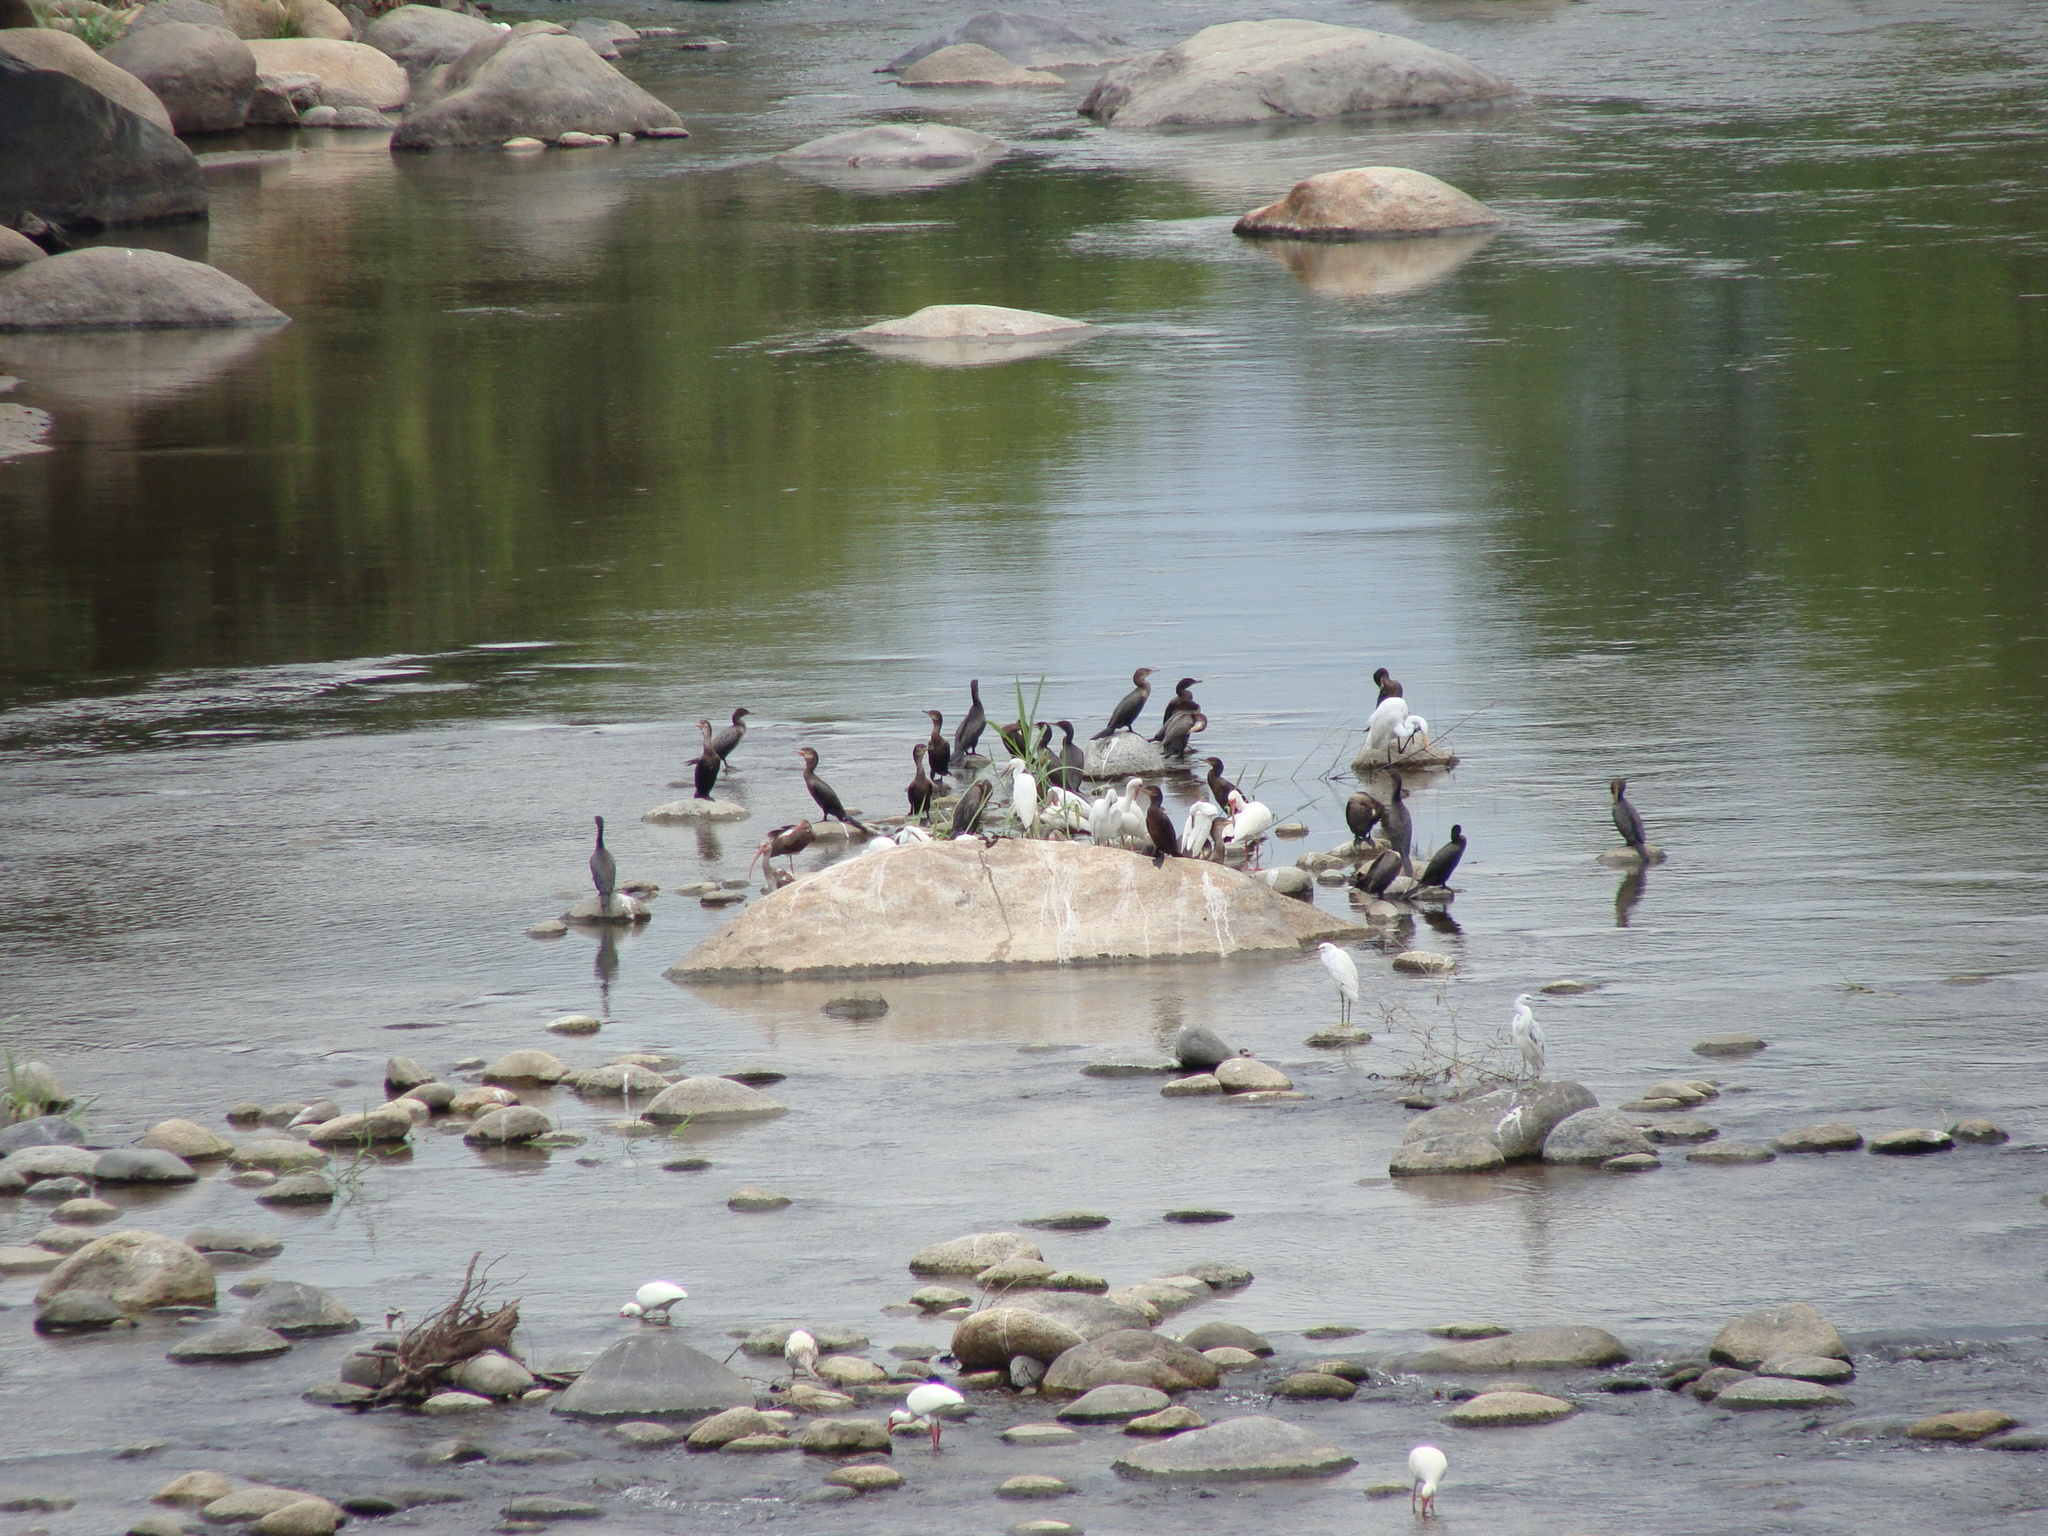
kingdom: Animalia
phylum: Chordata
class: Aves
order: Suliformes
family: Phalacrocoracidae
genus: Phalacrocorax
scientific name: Phalacrocorax brasilianus
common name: Neotropic cormorant
